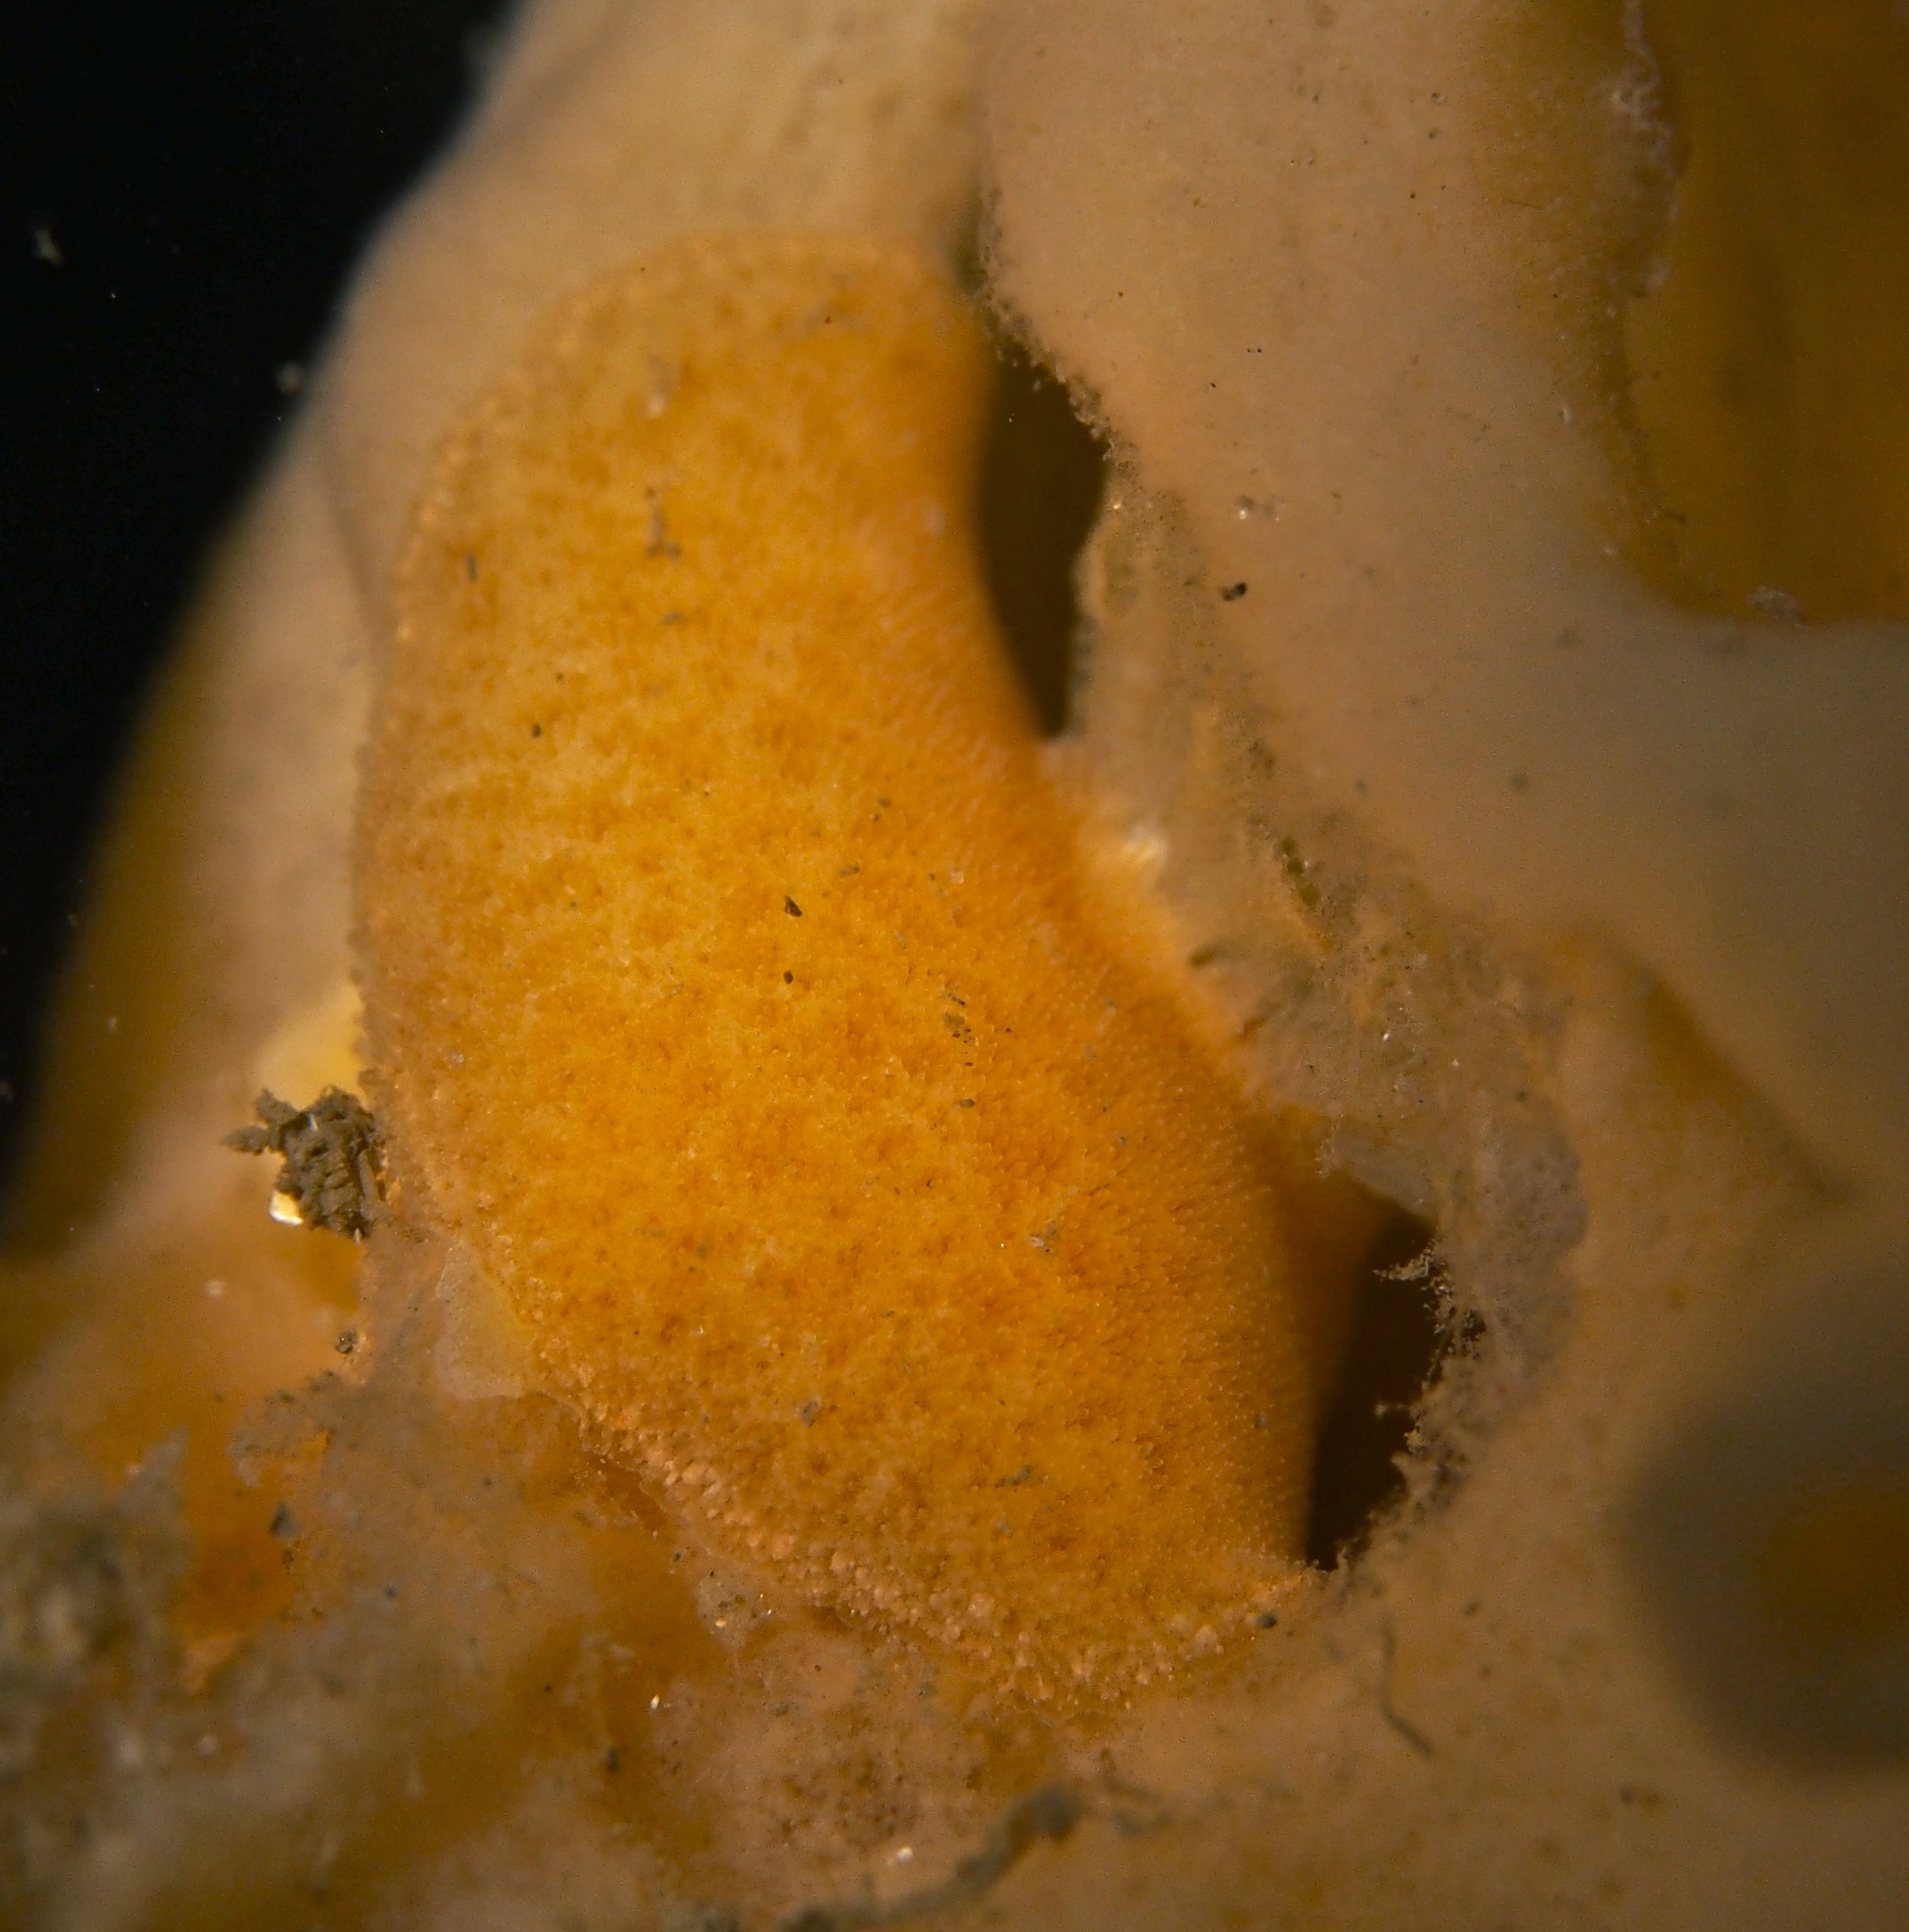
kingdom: Animalia
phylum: Mollusca
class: Gastropoda
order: Nudibranchia
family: Discodorididae
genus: Jorunna
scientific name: Jorunna tomentosa
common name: Grey sea slug
